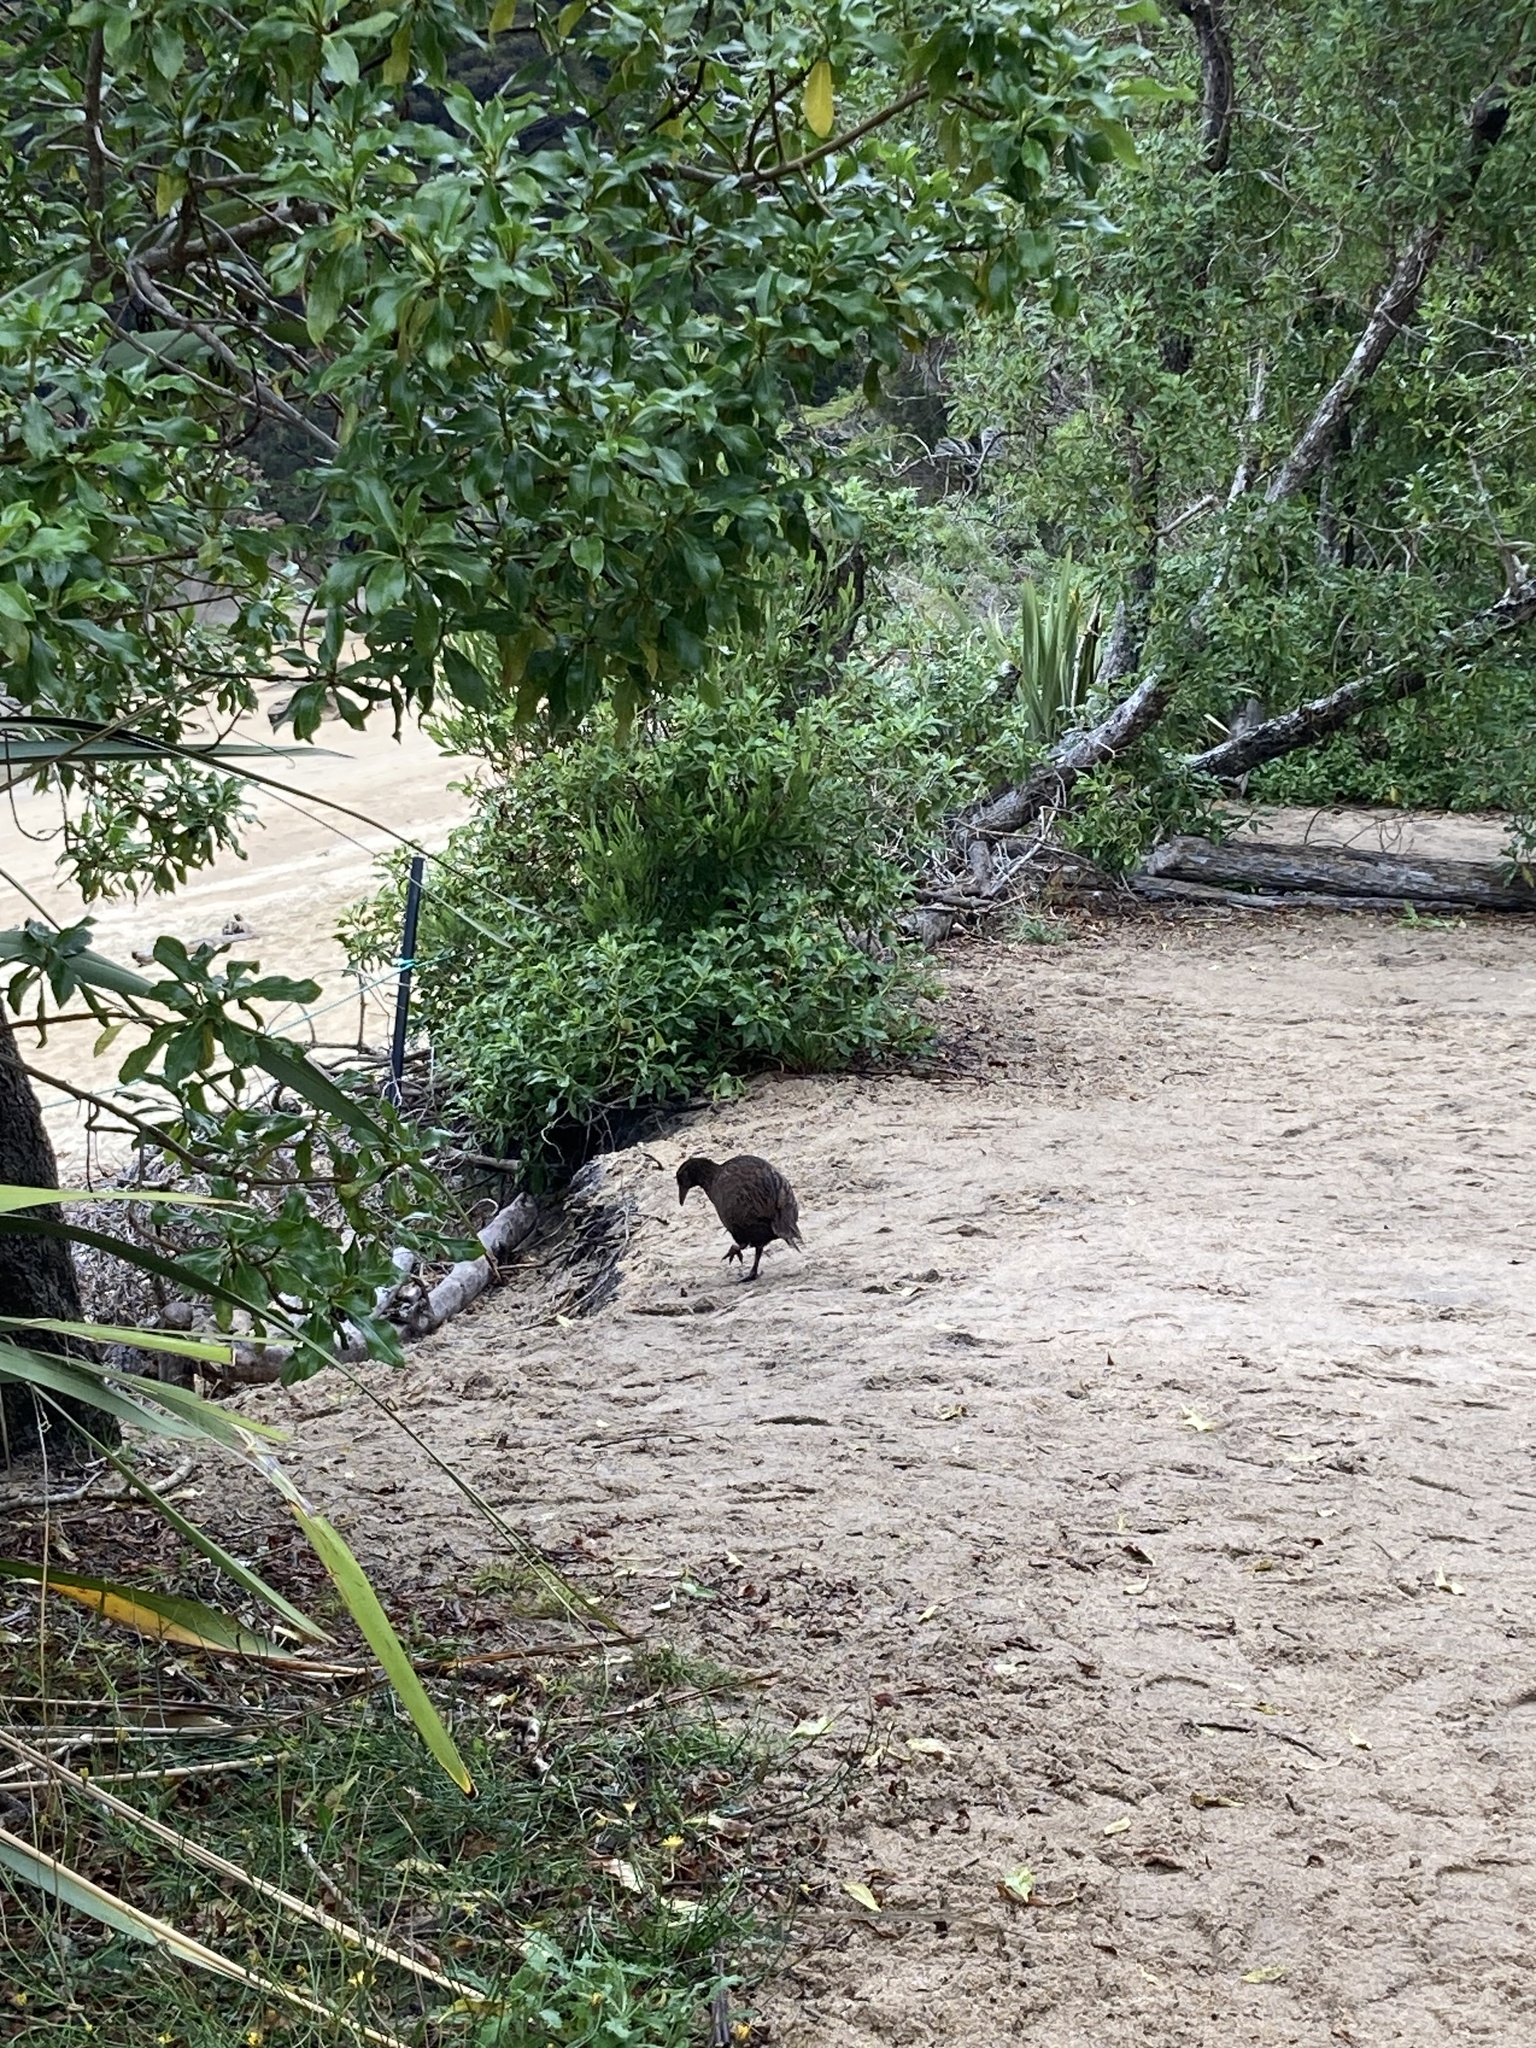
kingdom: Animalia
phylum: Chordata
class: Aves
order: Gruiformes
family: Rallidae
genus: Gallirallus
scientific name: Gallirallus australis
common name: Weka
